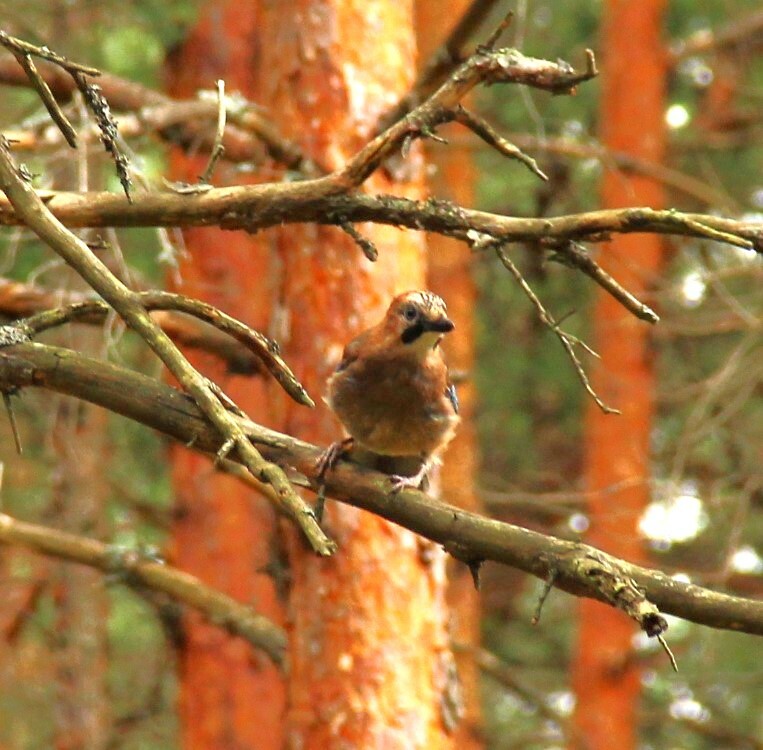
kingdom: Animalia
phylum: Chordata
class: Aves
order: Passeriformes
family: Corvidae
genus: Garrulus
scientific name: Garrulus glandarius
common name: Eurasian jay
